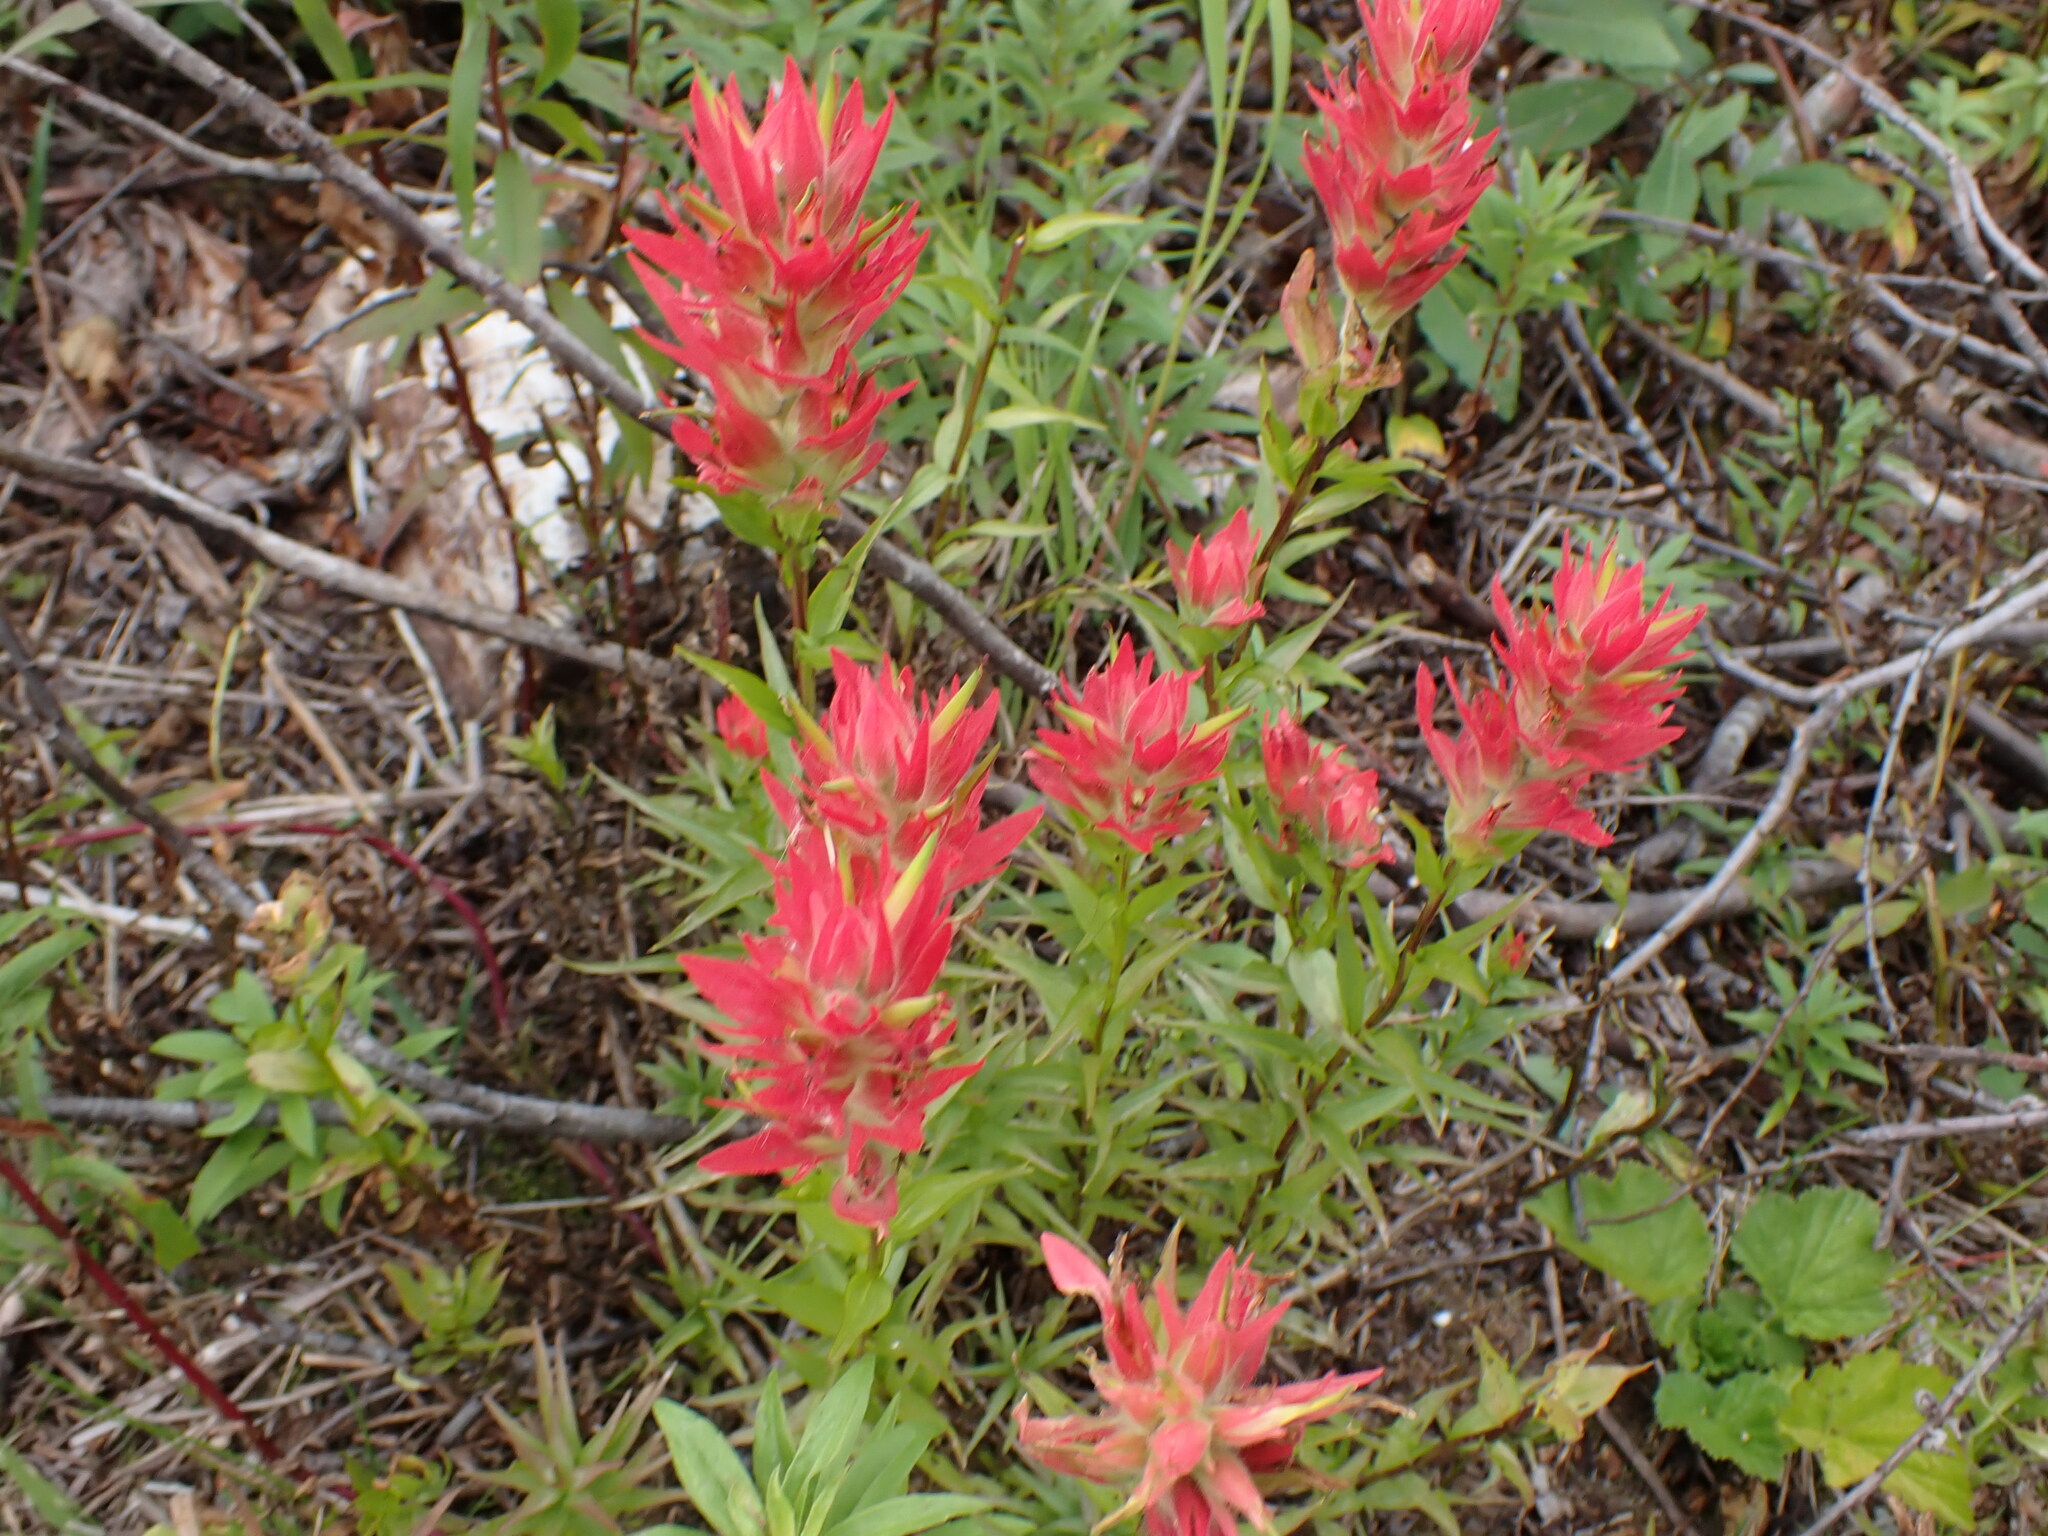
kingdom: Plantae
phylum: Tracheophyta
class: Magnoliopsida
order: Lamiales
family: Orobanchaceae
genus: Castilleja
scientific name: Castilleja miniata
